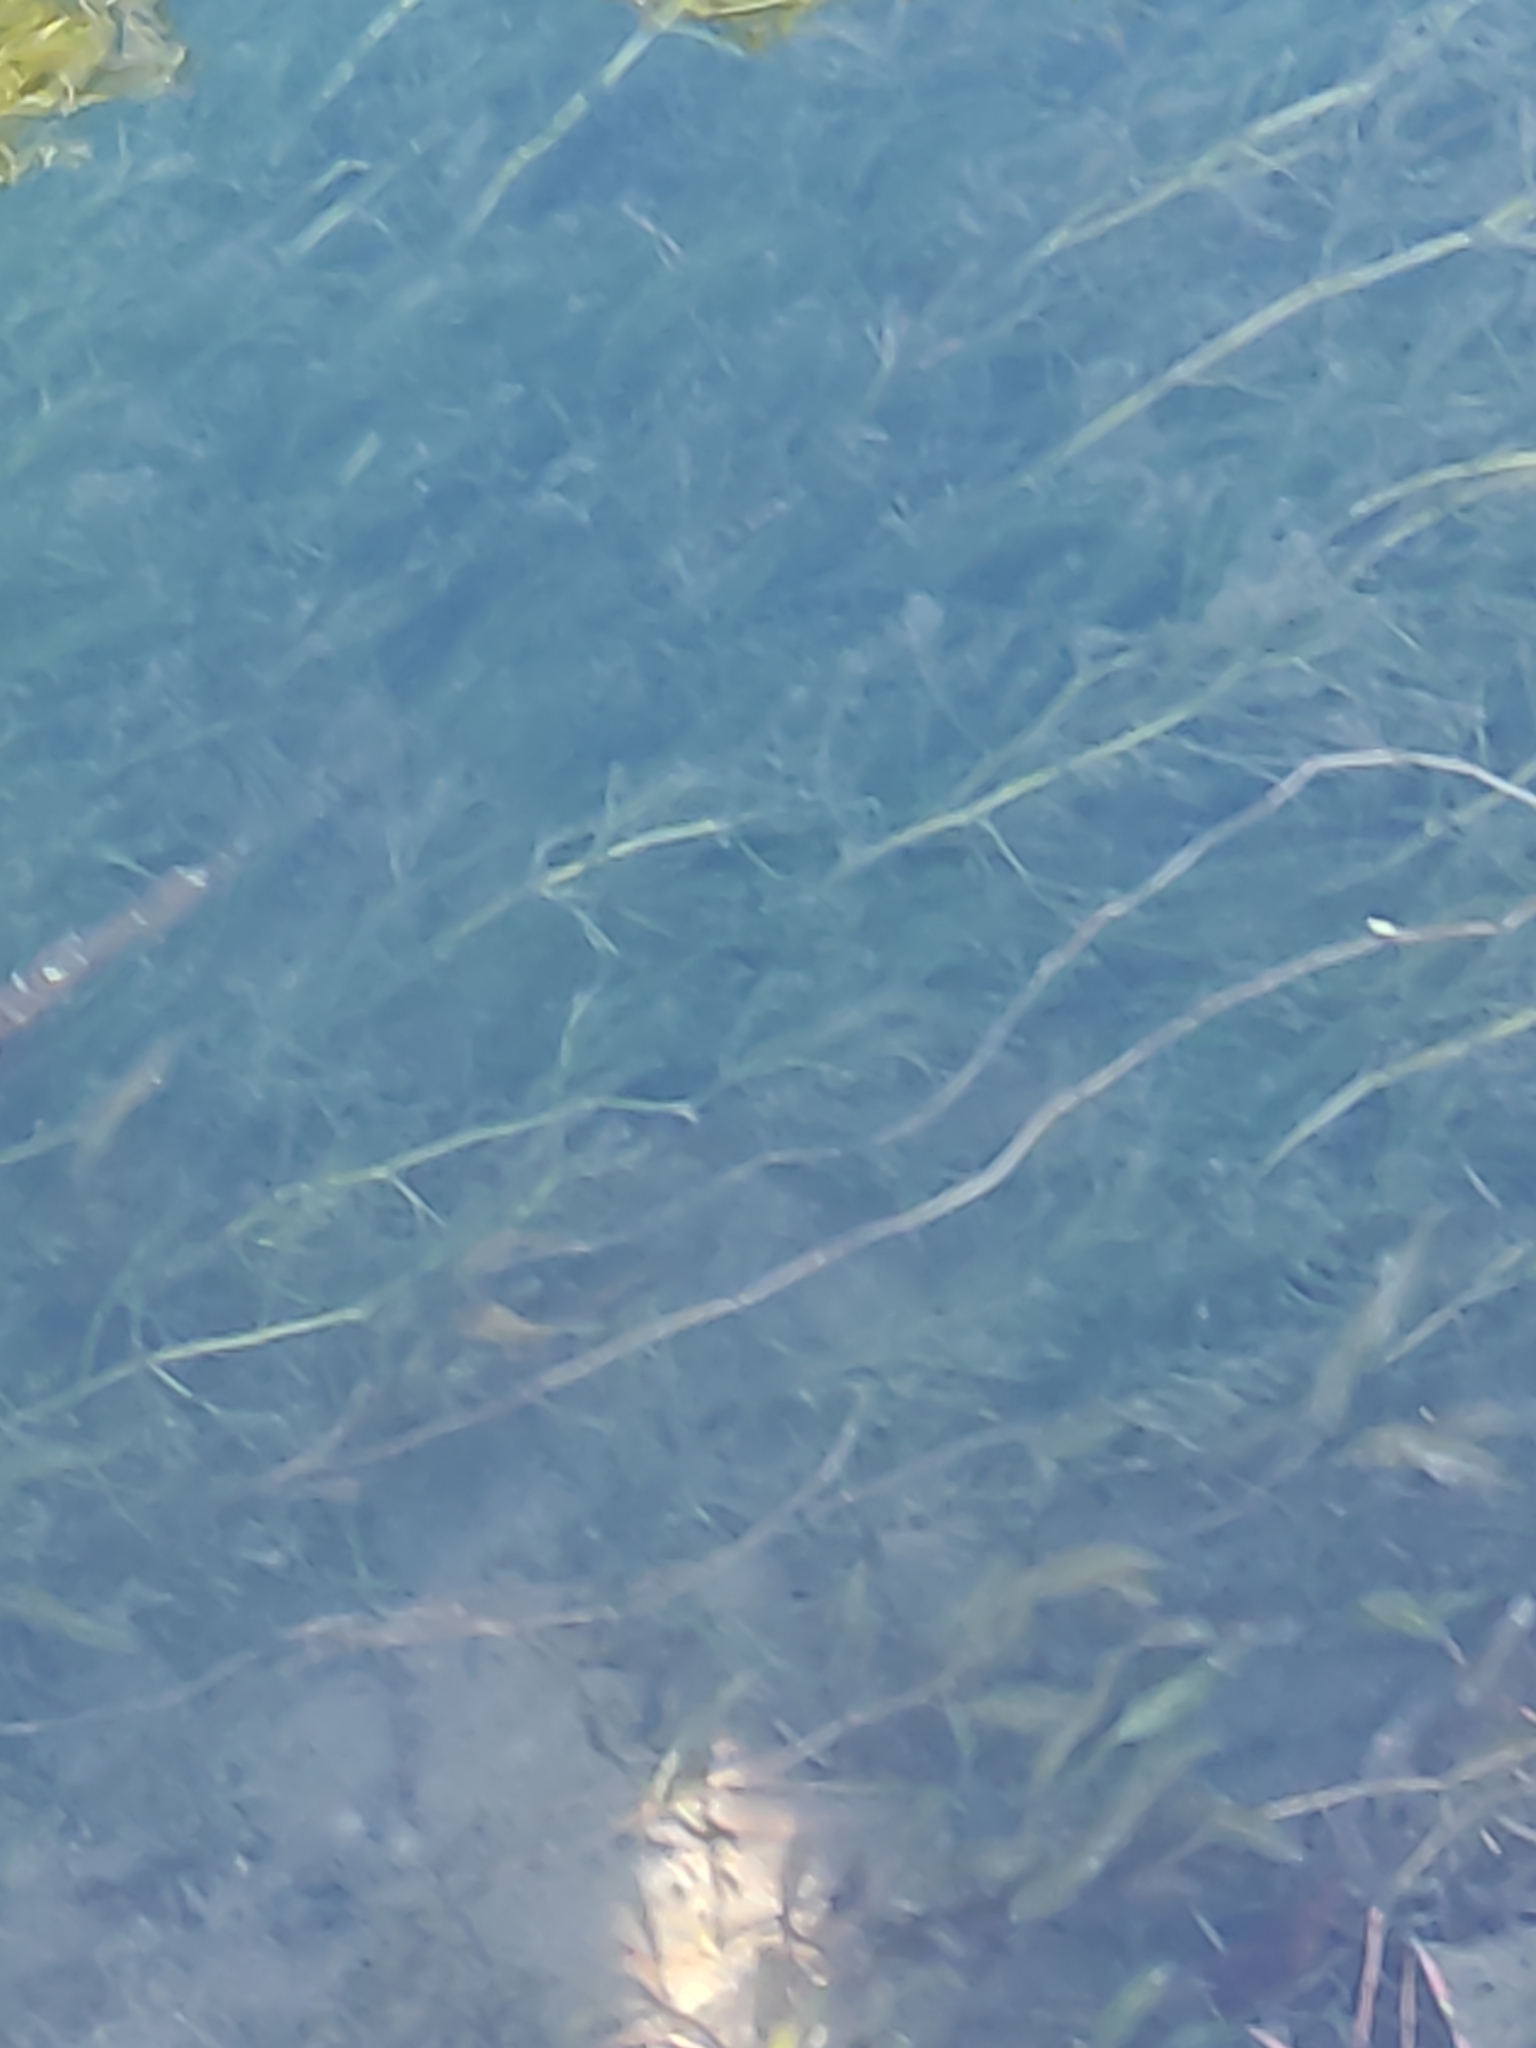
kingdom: Plantae
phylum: Tracheophyta
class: Magnoliopsida
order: Ranunculales
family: Ranunculaceae
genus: Ranunculus
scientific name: Ranunculus trichophyllus
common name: Thread-leaved water-crowfoot
